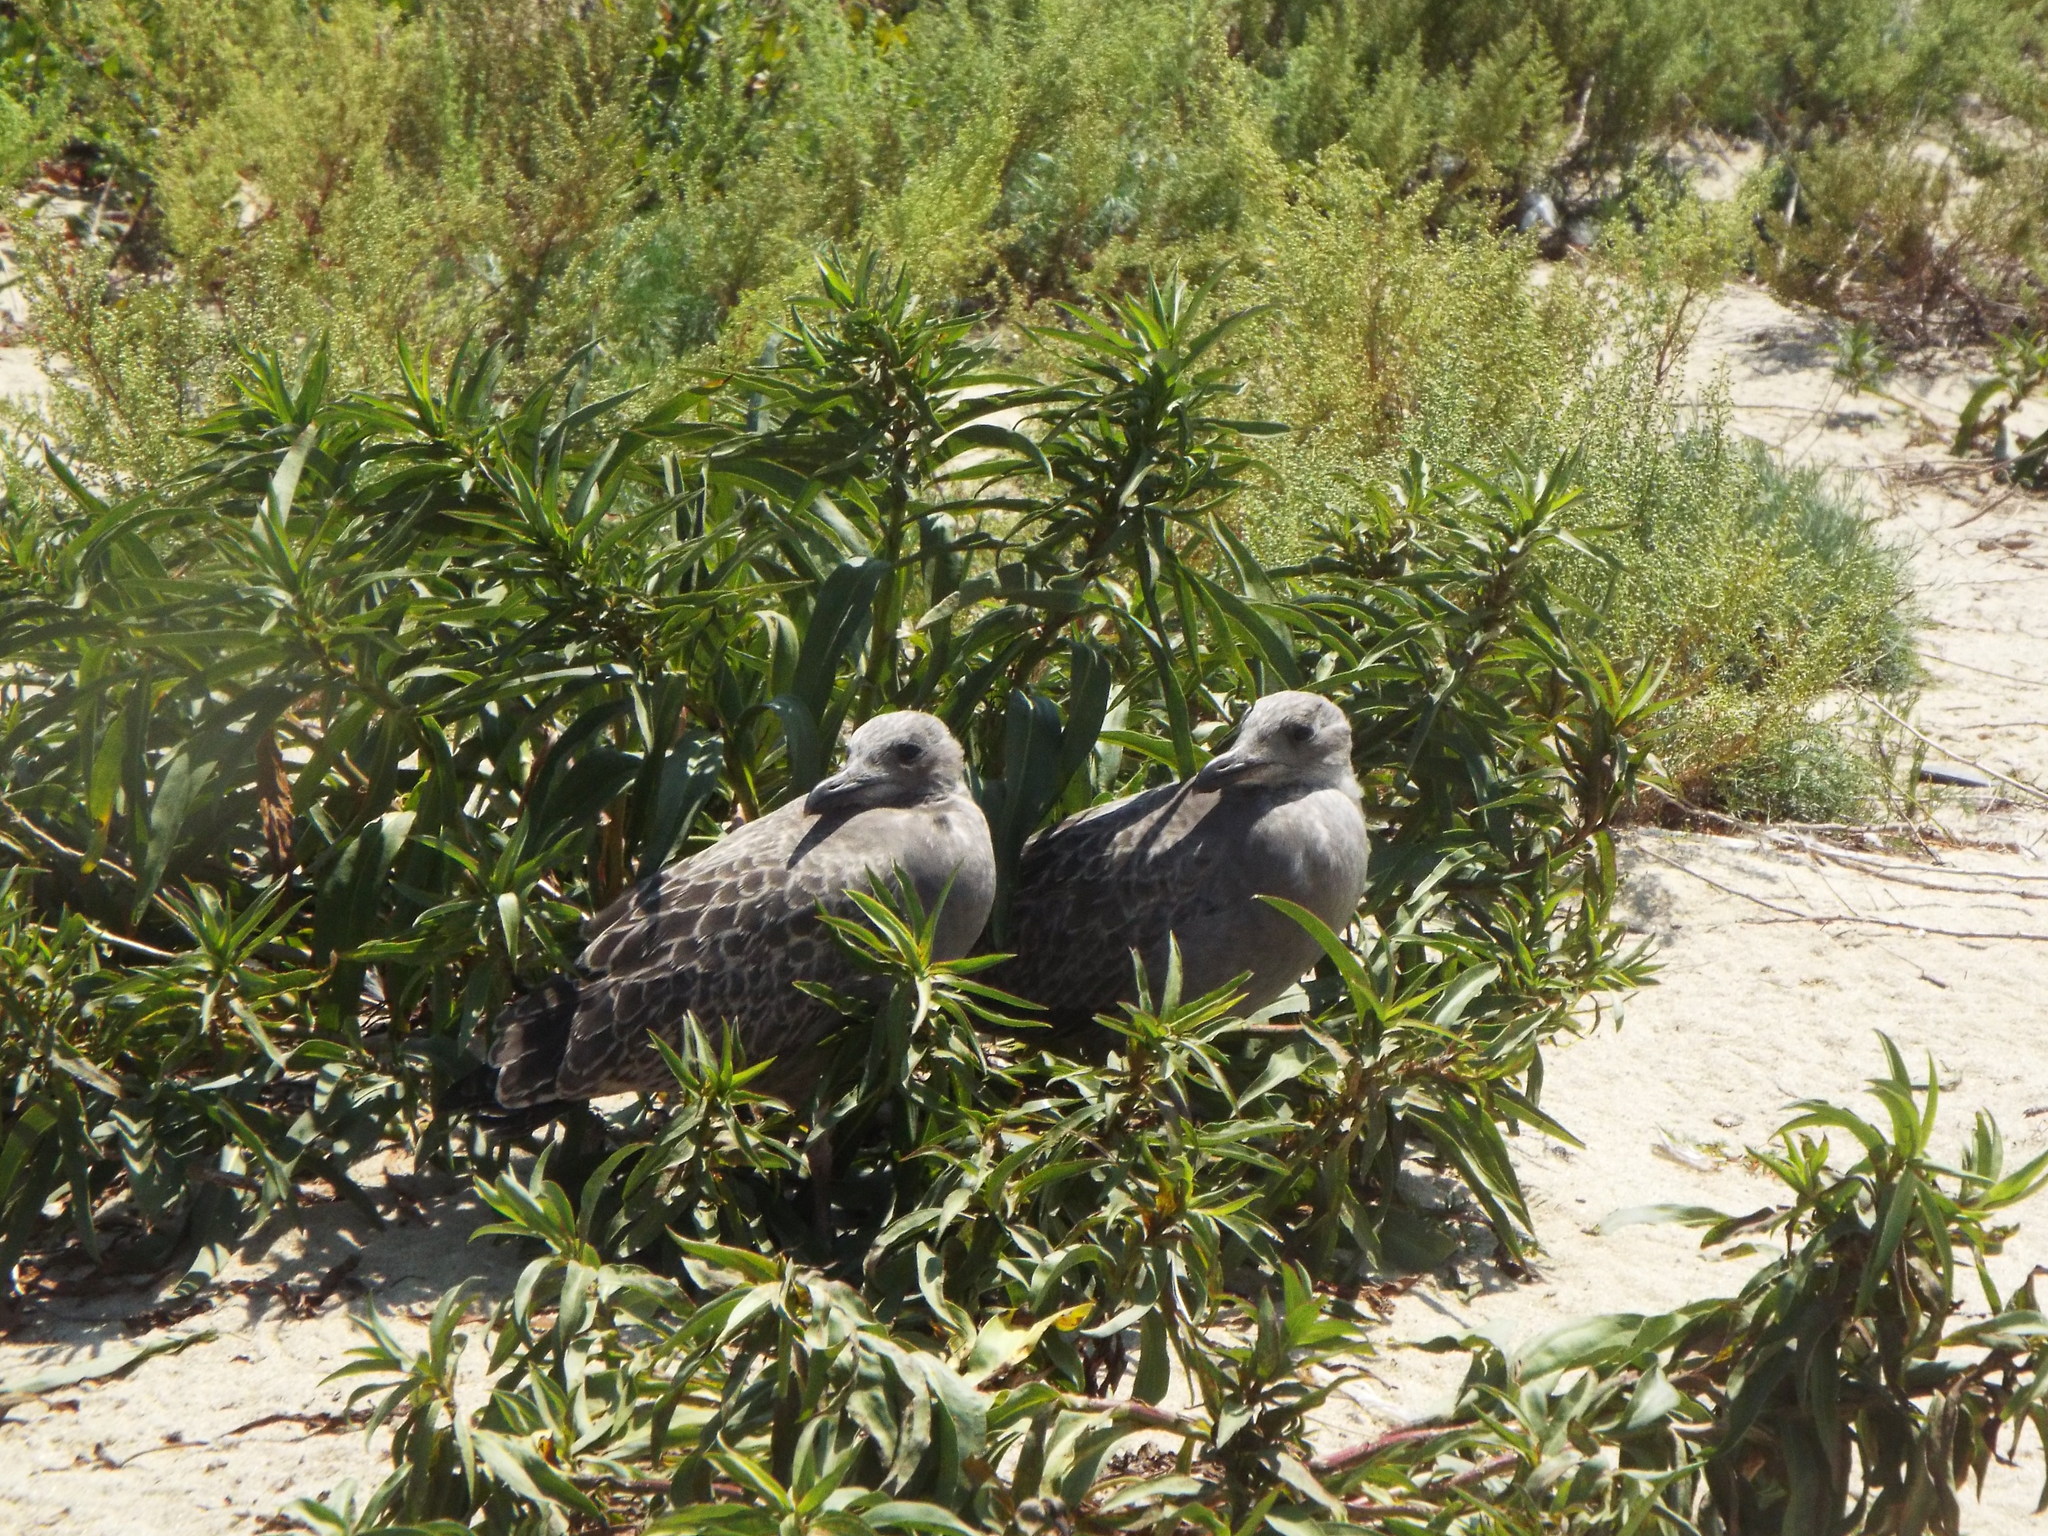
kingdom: Animalia
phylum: Chordata
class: Aves
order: Charadriiformes
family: Laridae
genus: Larus
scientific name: Larus argentatus
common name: Herring gull
